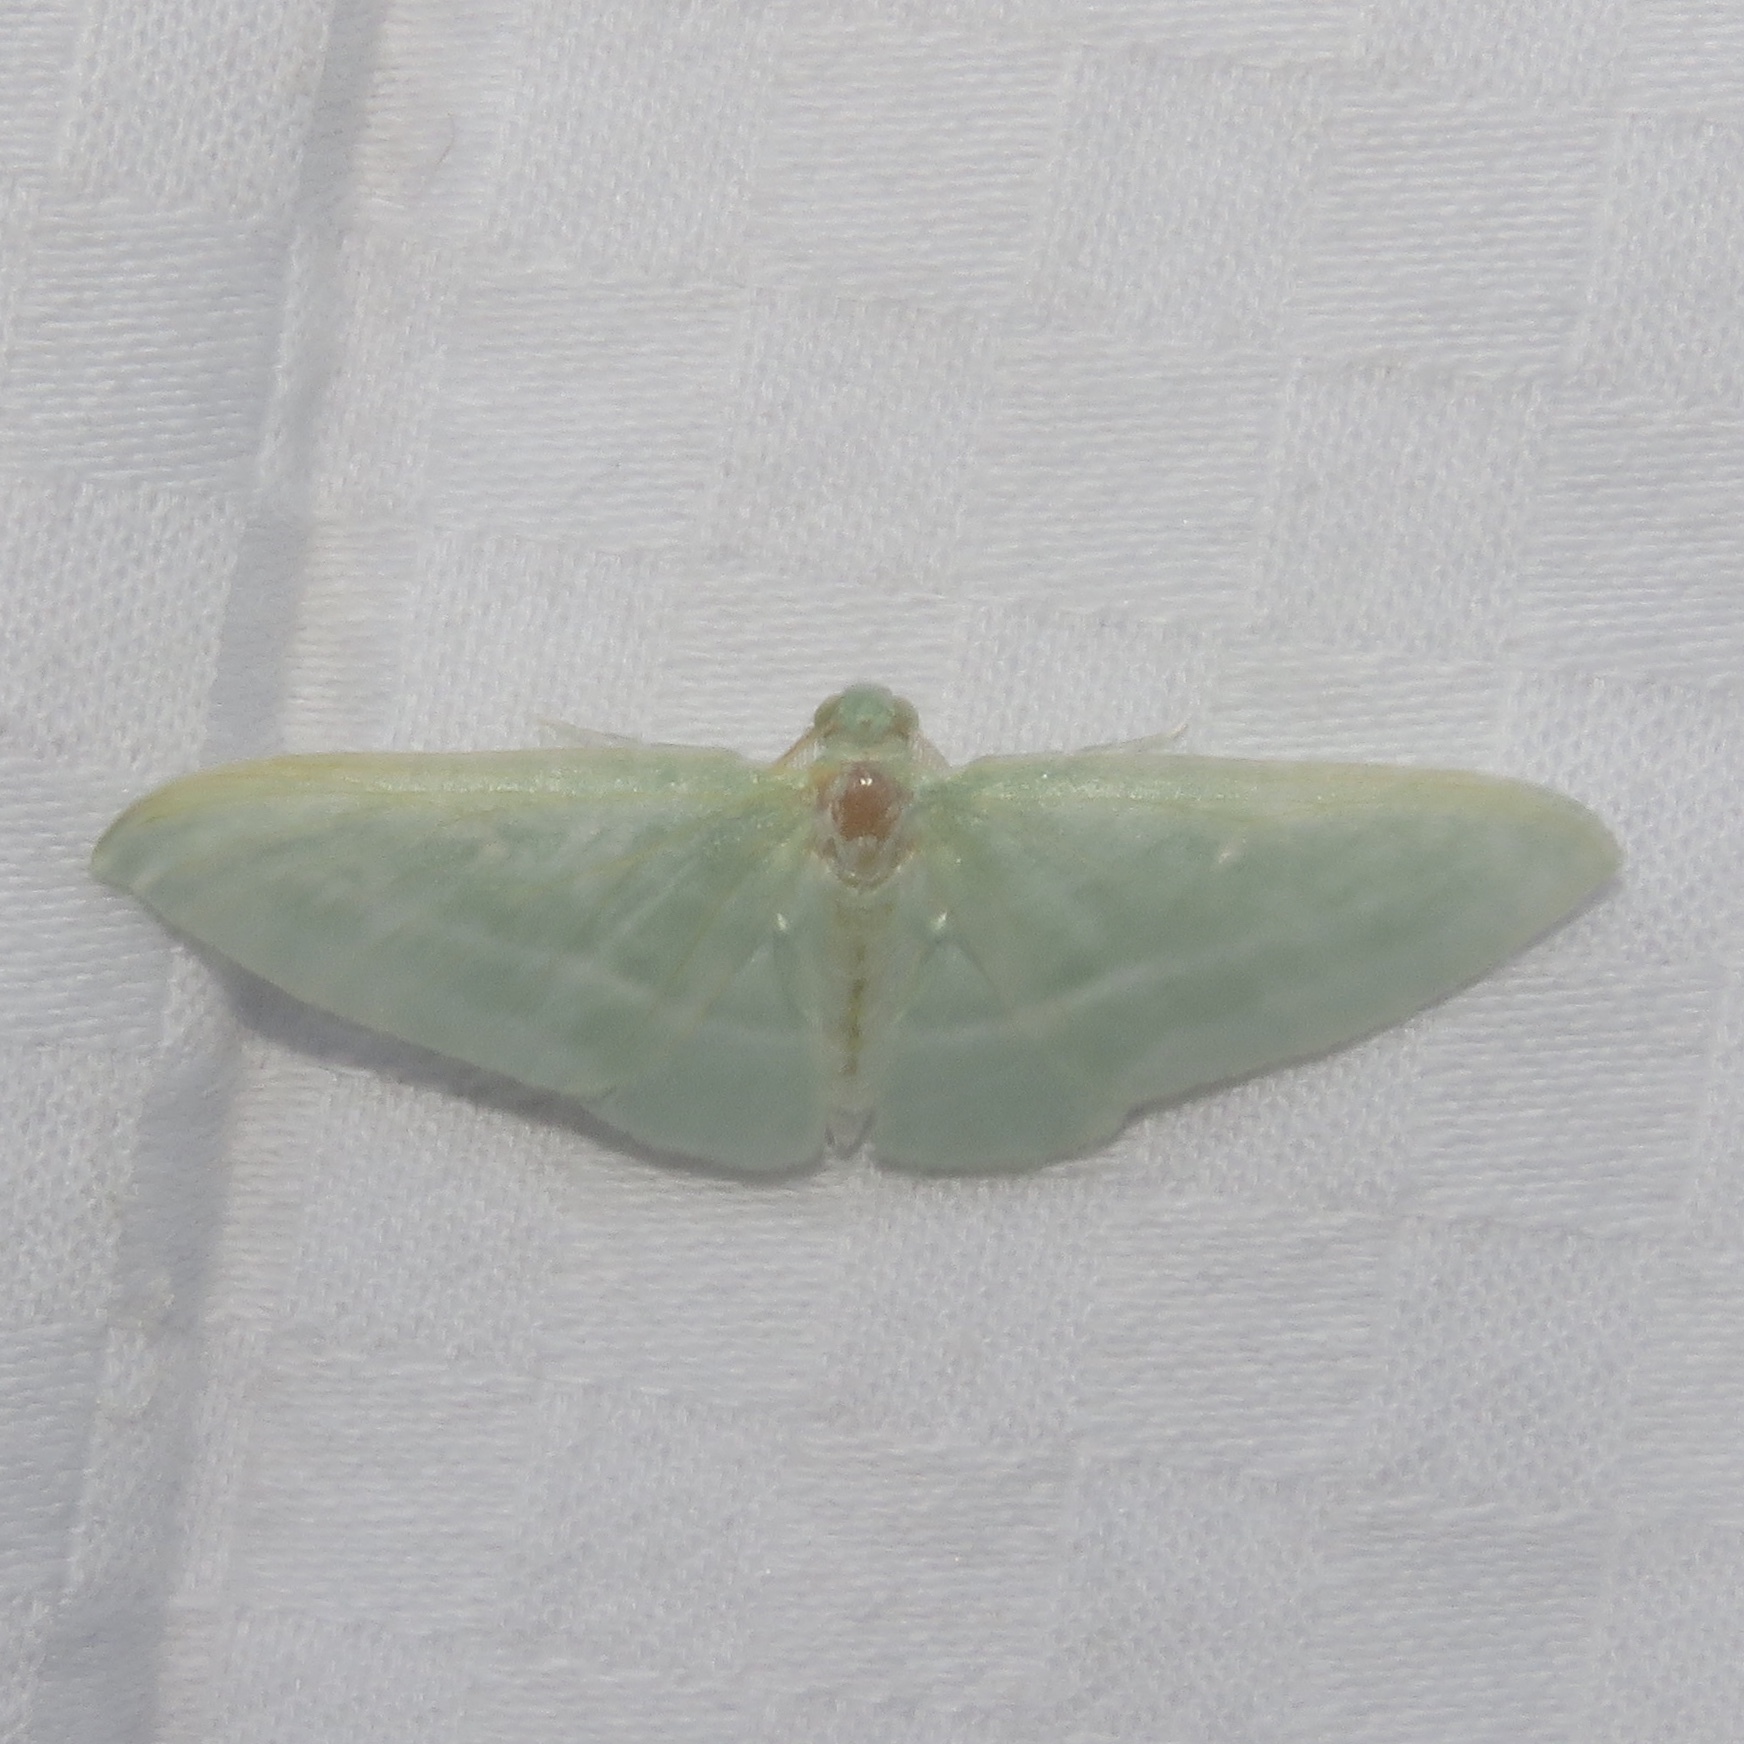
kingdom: Animalia
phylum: Arthropoda
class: Insecta
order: Lepidoptera
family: Geometridae
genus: Dyspteris
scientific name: Dyspteris abortivaria
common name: Bad-wing
